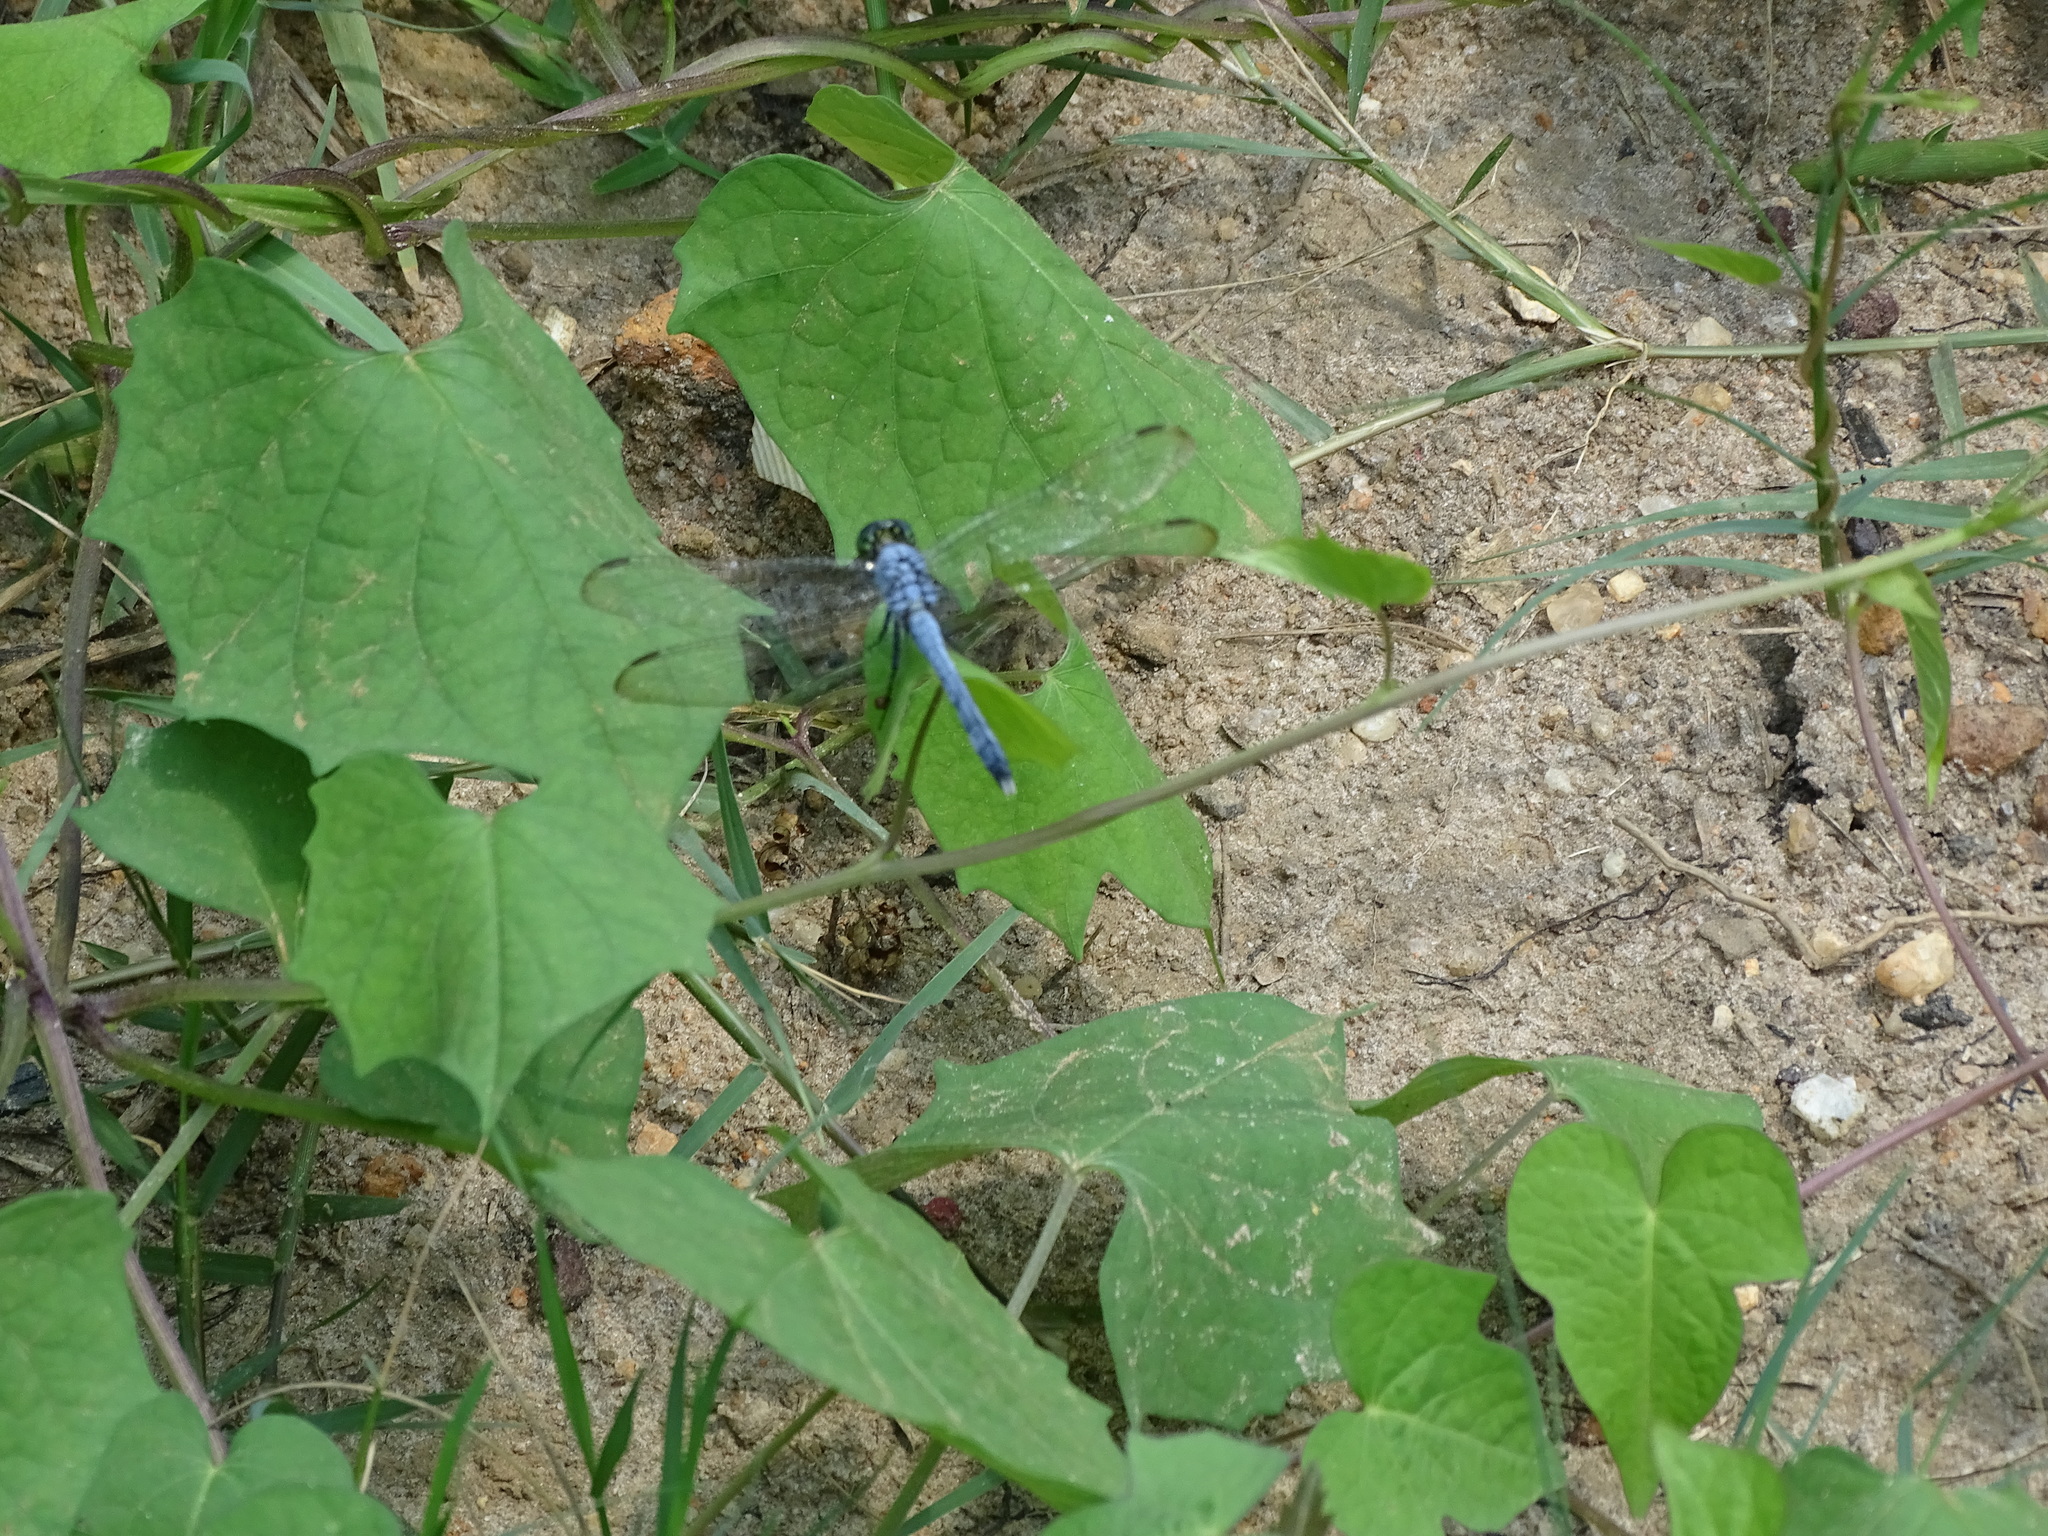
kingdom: Animalia
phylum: Arthropoda
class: Insecta
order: Odonata
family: Libellulidae
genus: Erythemis
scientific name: Erythemis simplicicollis
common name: Eastern pondhawk
